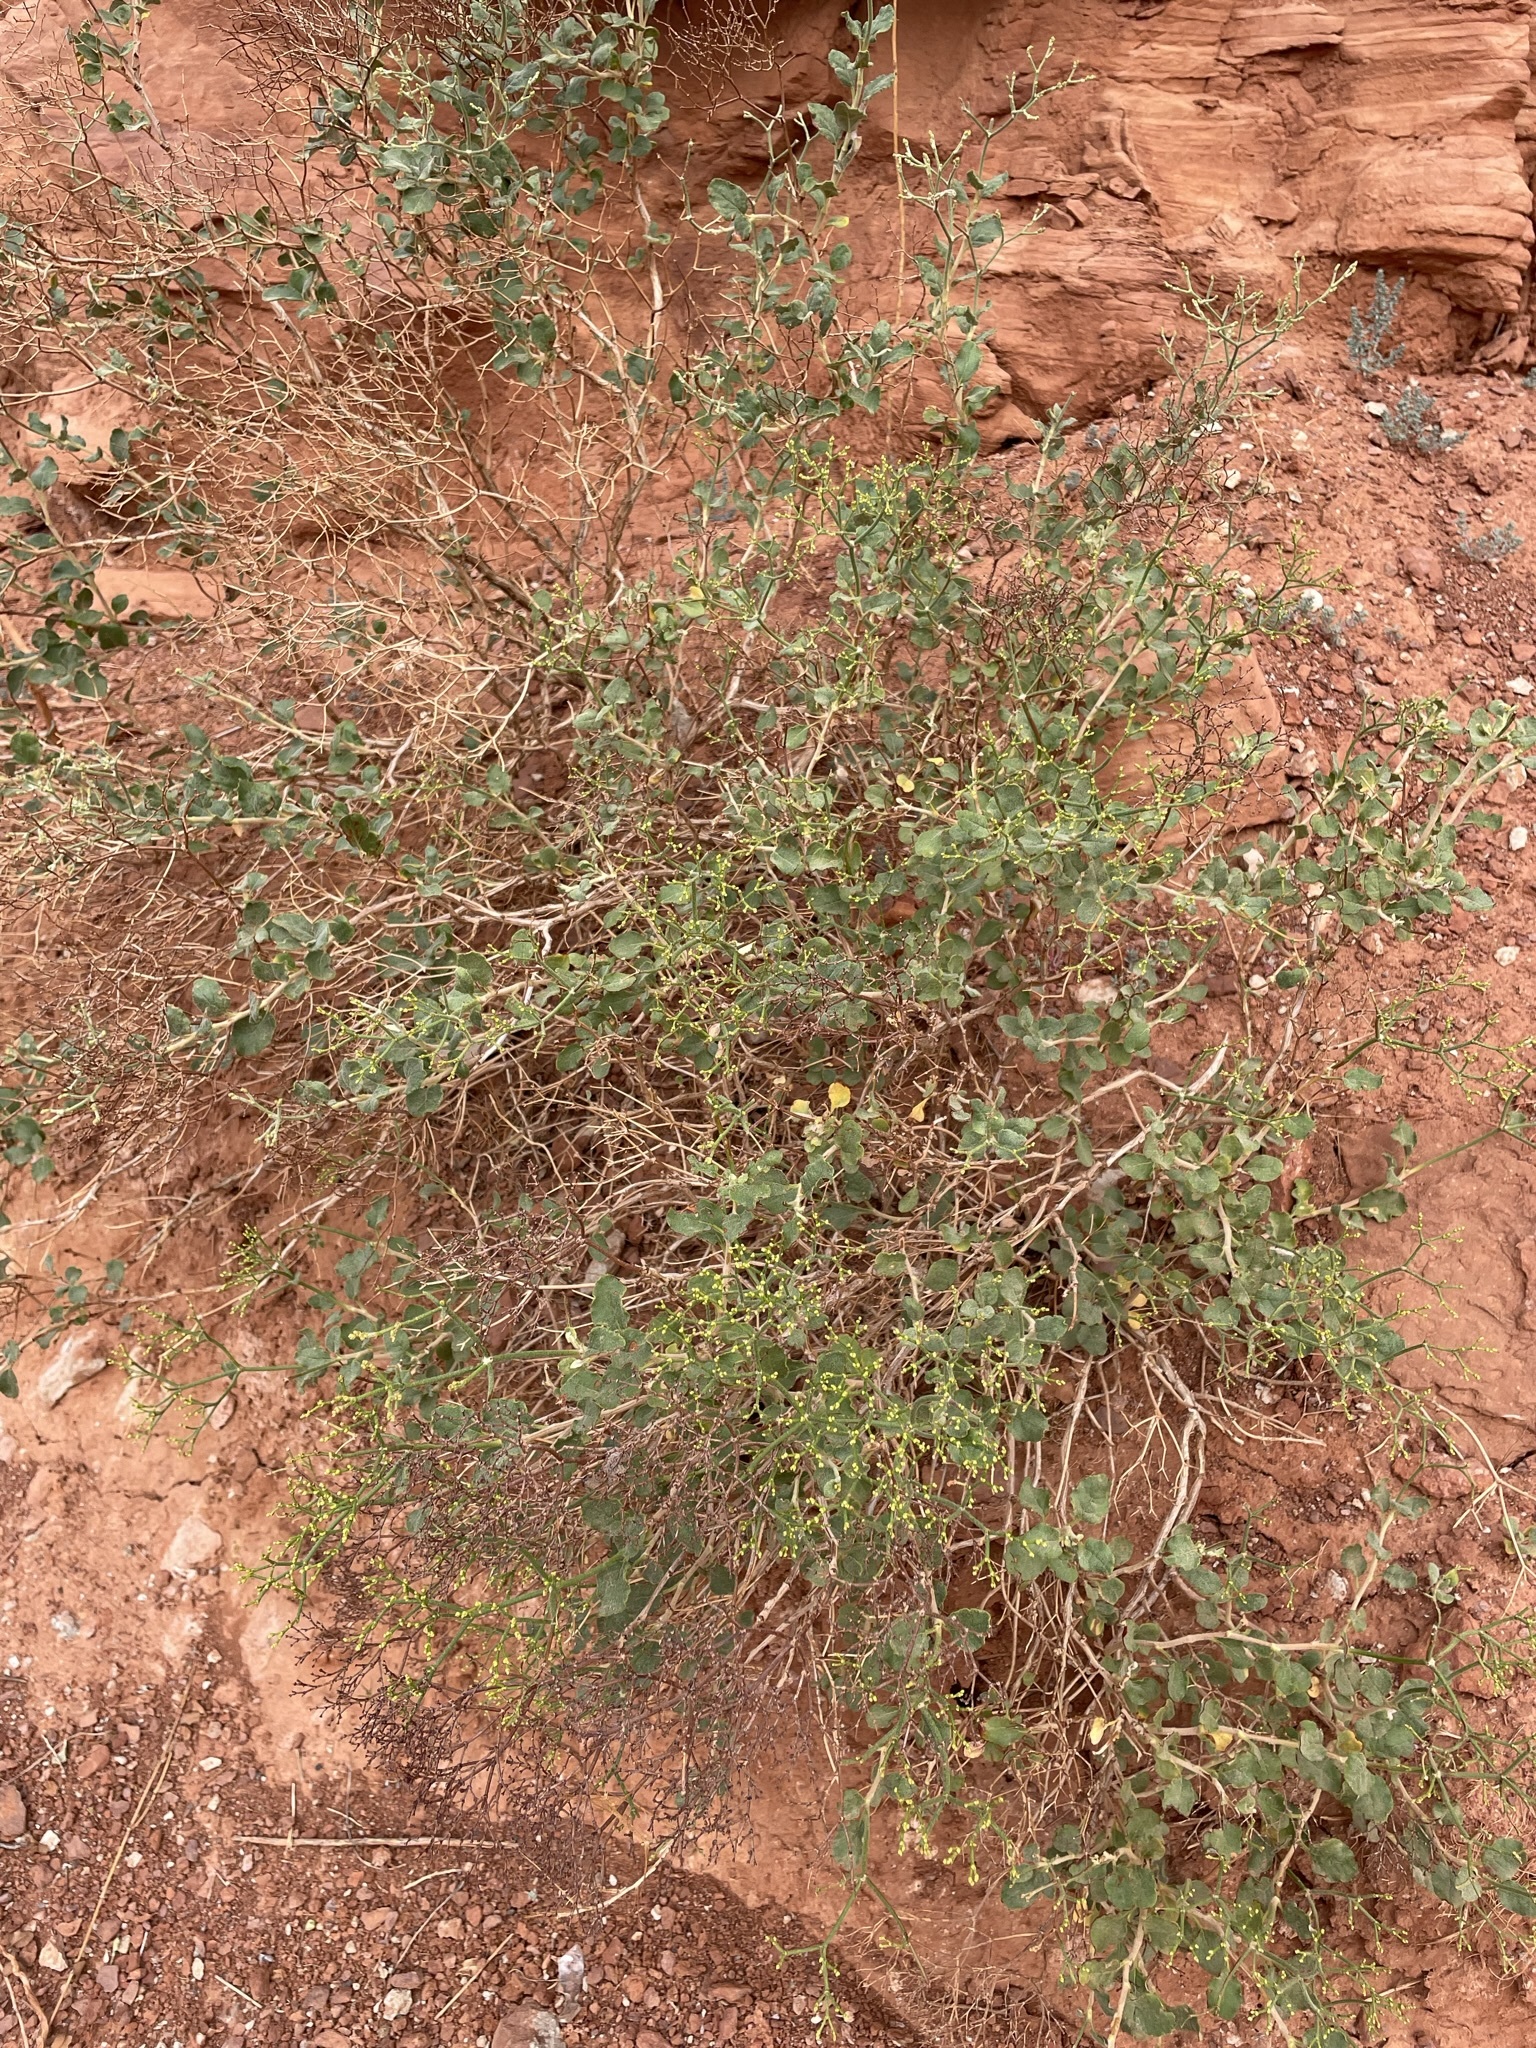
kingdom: Plantae
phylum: Tracheophyta
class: Magnoliopsida
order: Caryophyllales
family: Polygonaceae
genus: Eriogonum
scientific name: Eriogonum corymbosum
